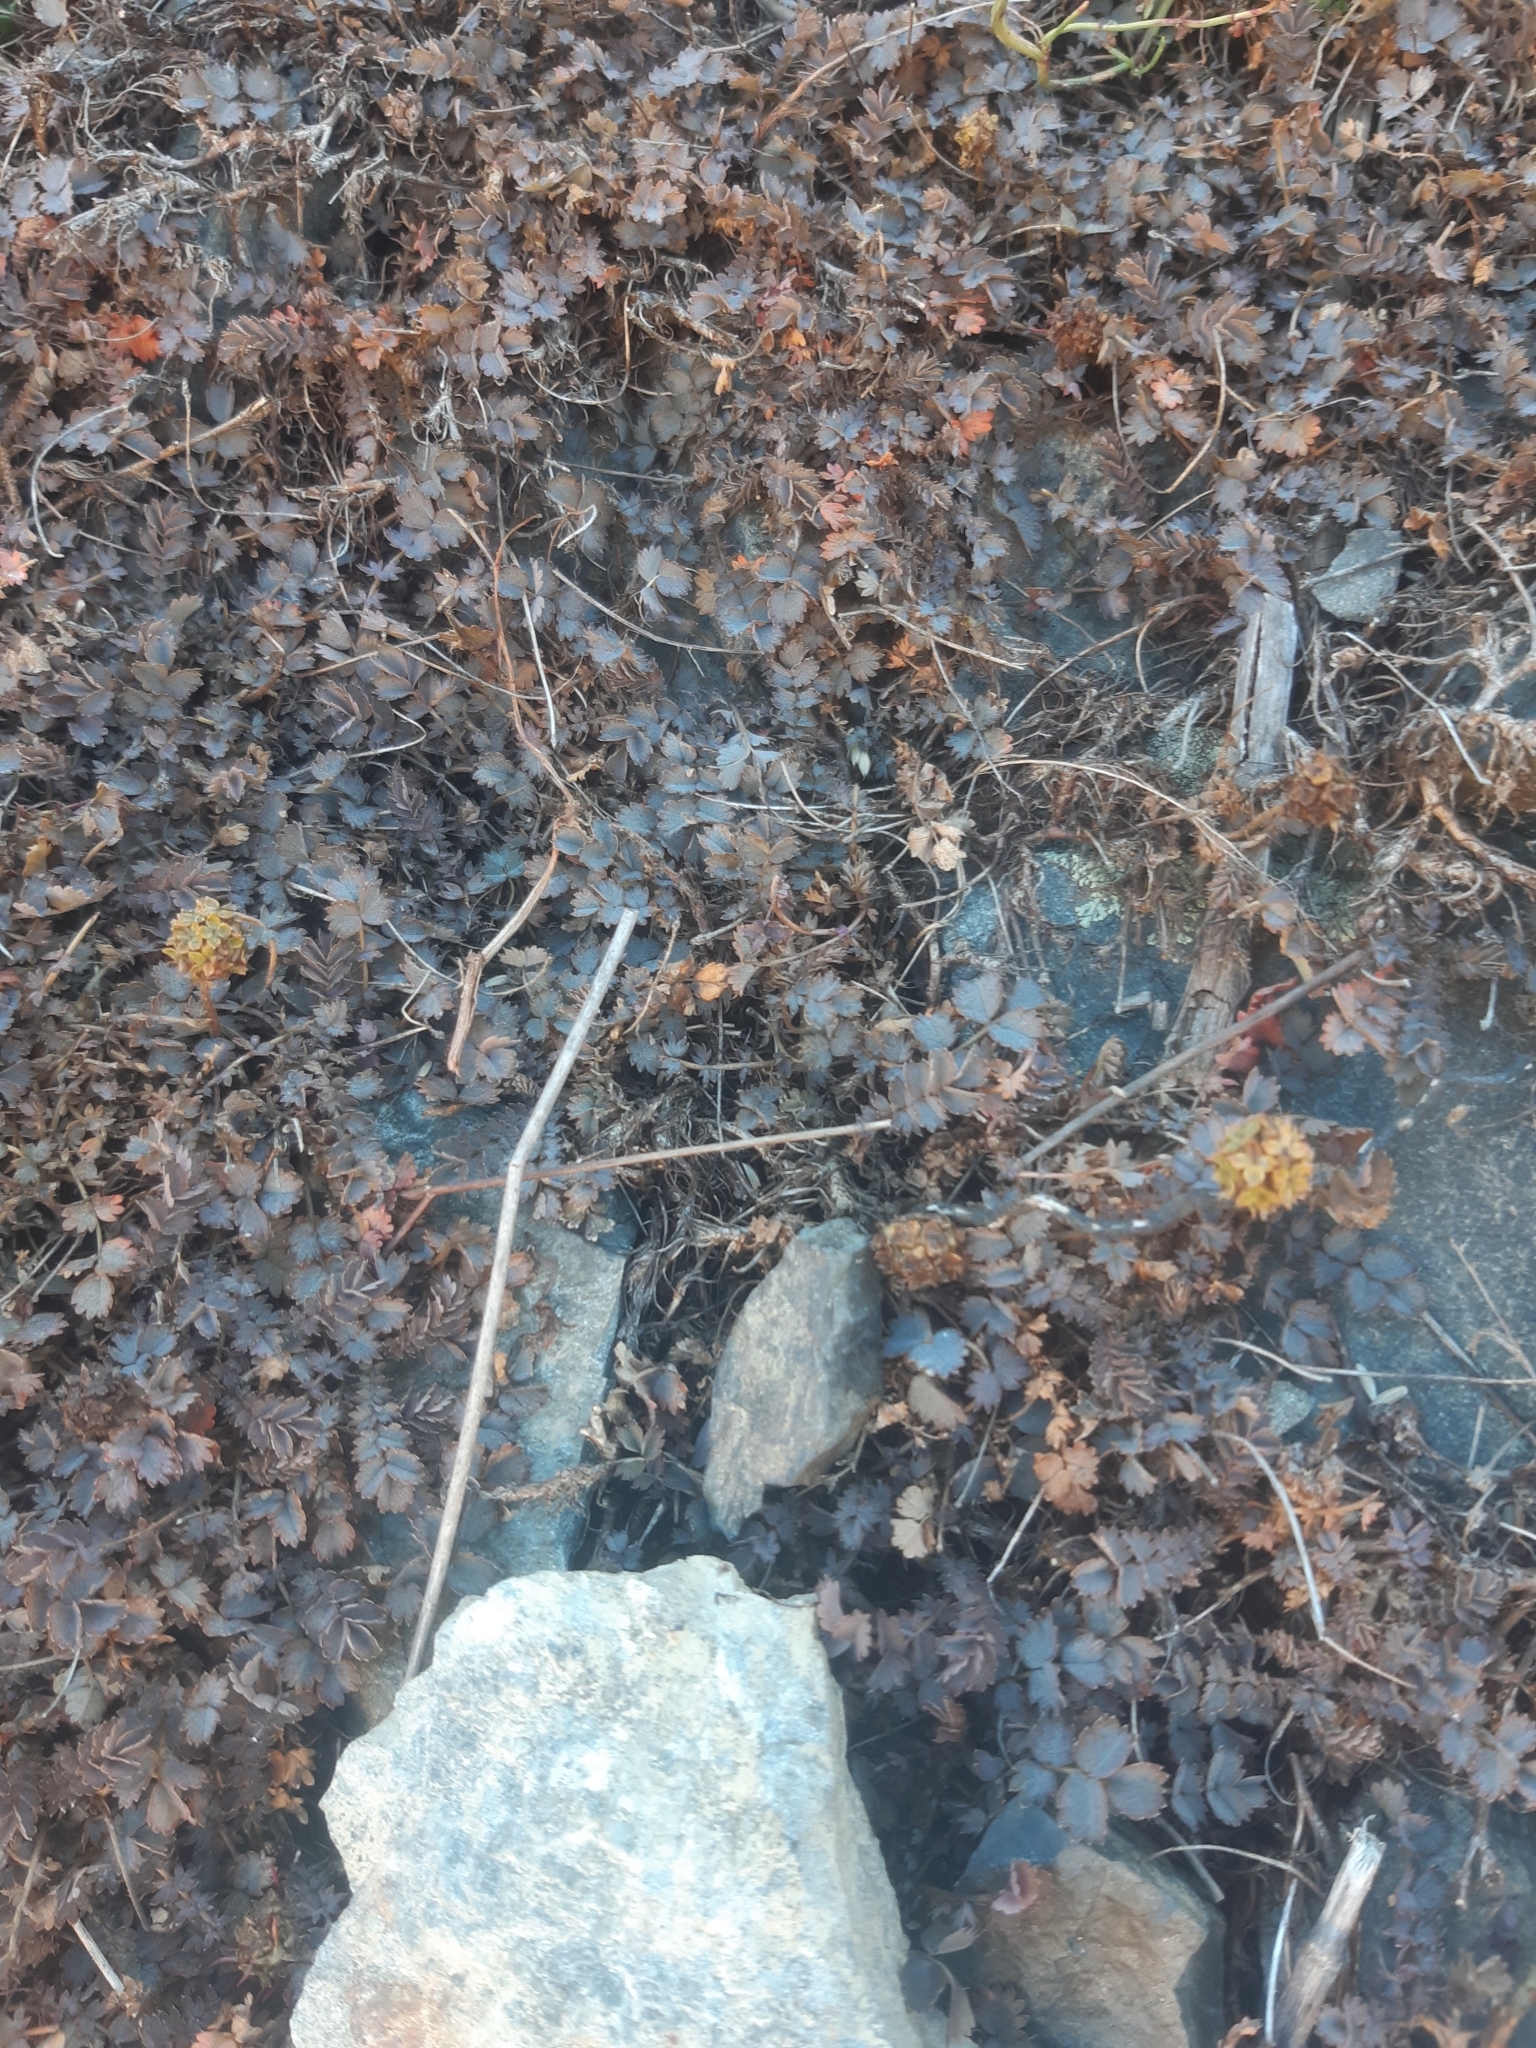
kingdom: Plantae
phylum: Tracheophyta
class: Magnoliopsida
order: Rosales
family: Rosaceae
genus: Acaena
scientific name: Acaena inermis
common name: Spineless acaena
